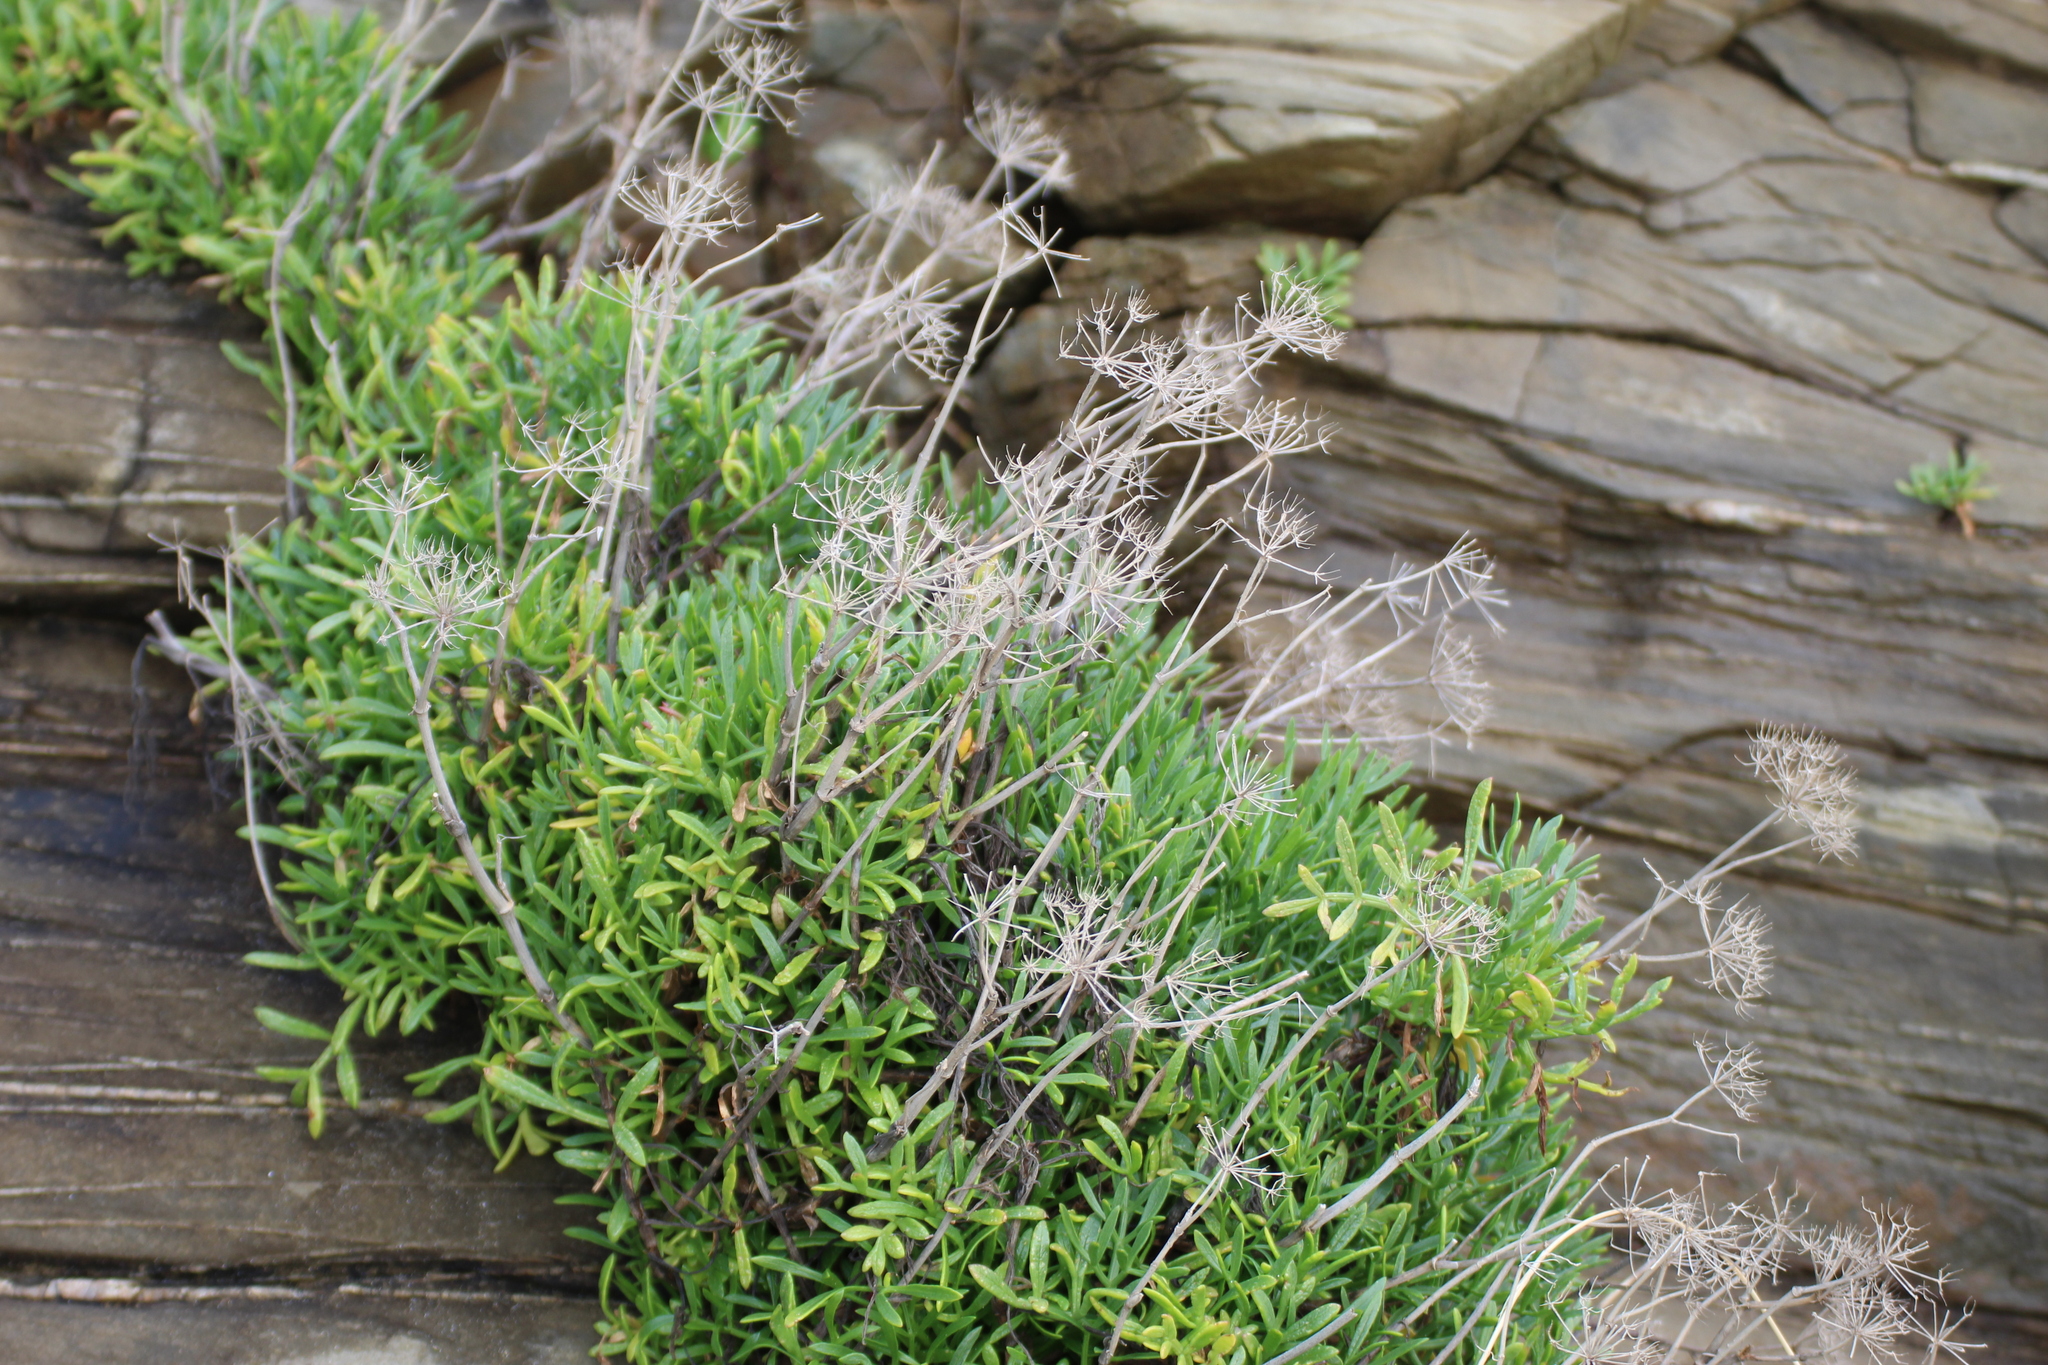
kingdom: Plantae
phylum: Tracheophyta
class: Magnoliopsida
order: Apiales
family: Apiaceae
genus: Crithmum
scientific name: Crithmum maritimum
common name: Rock samphire
